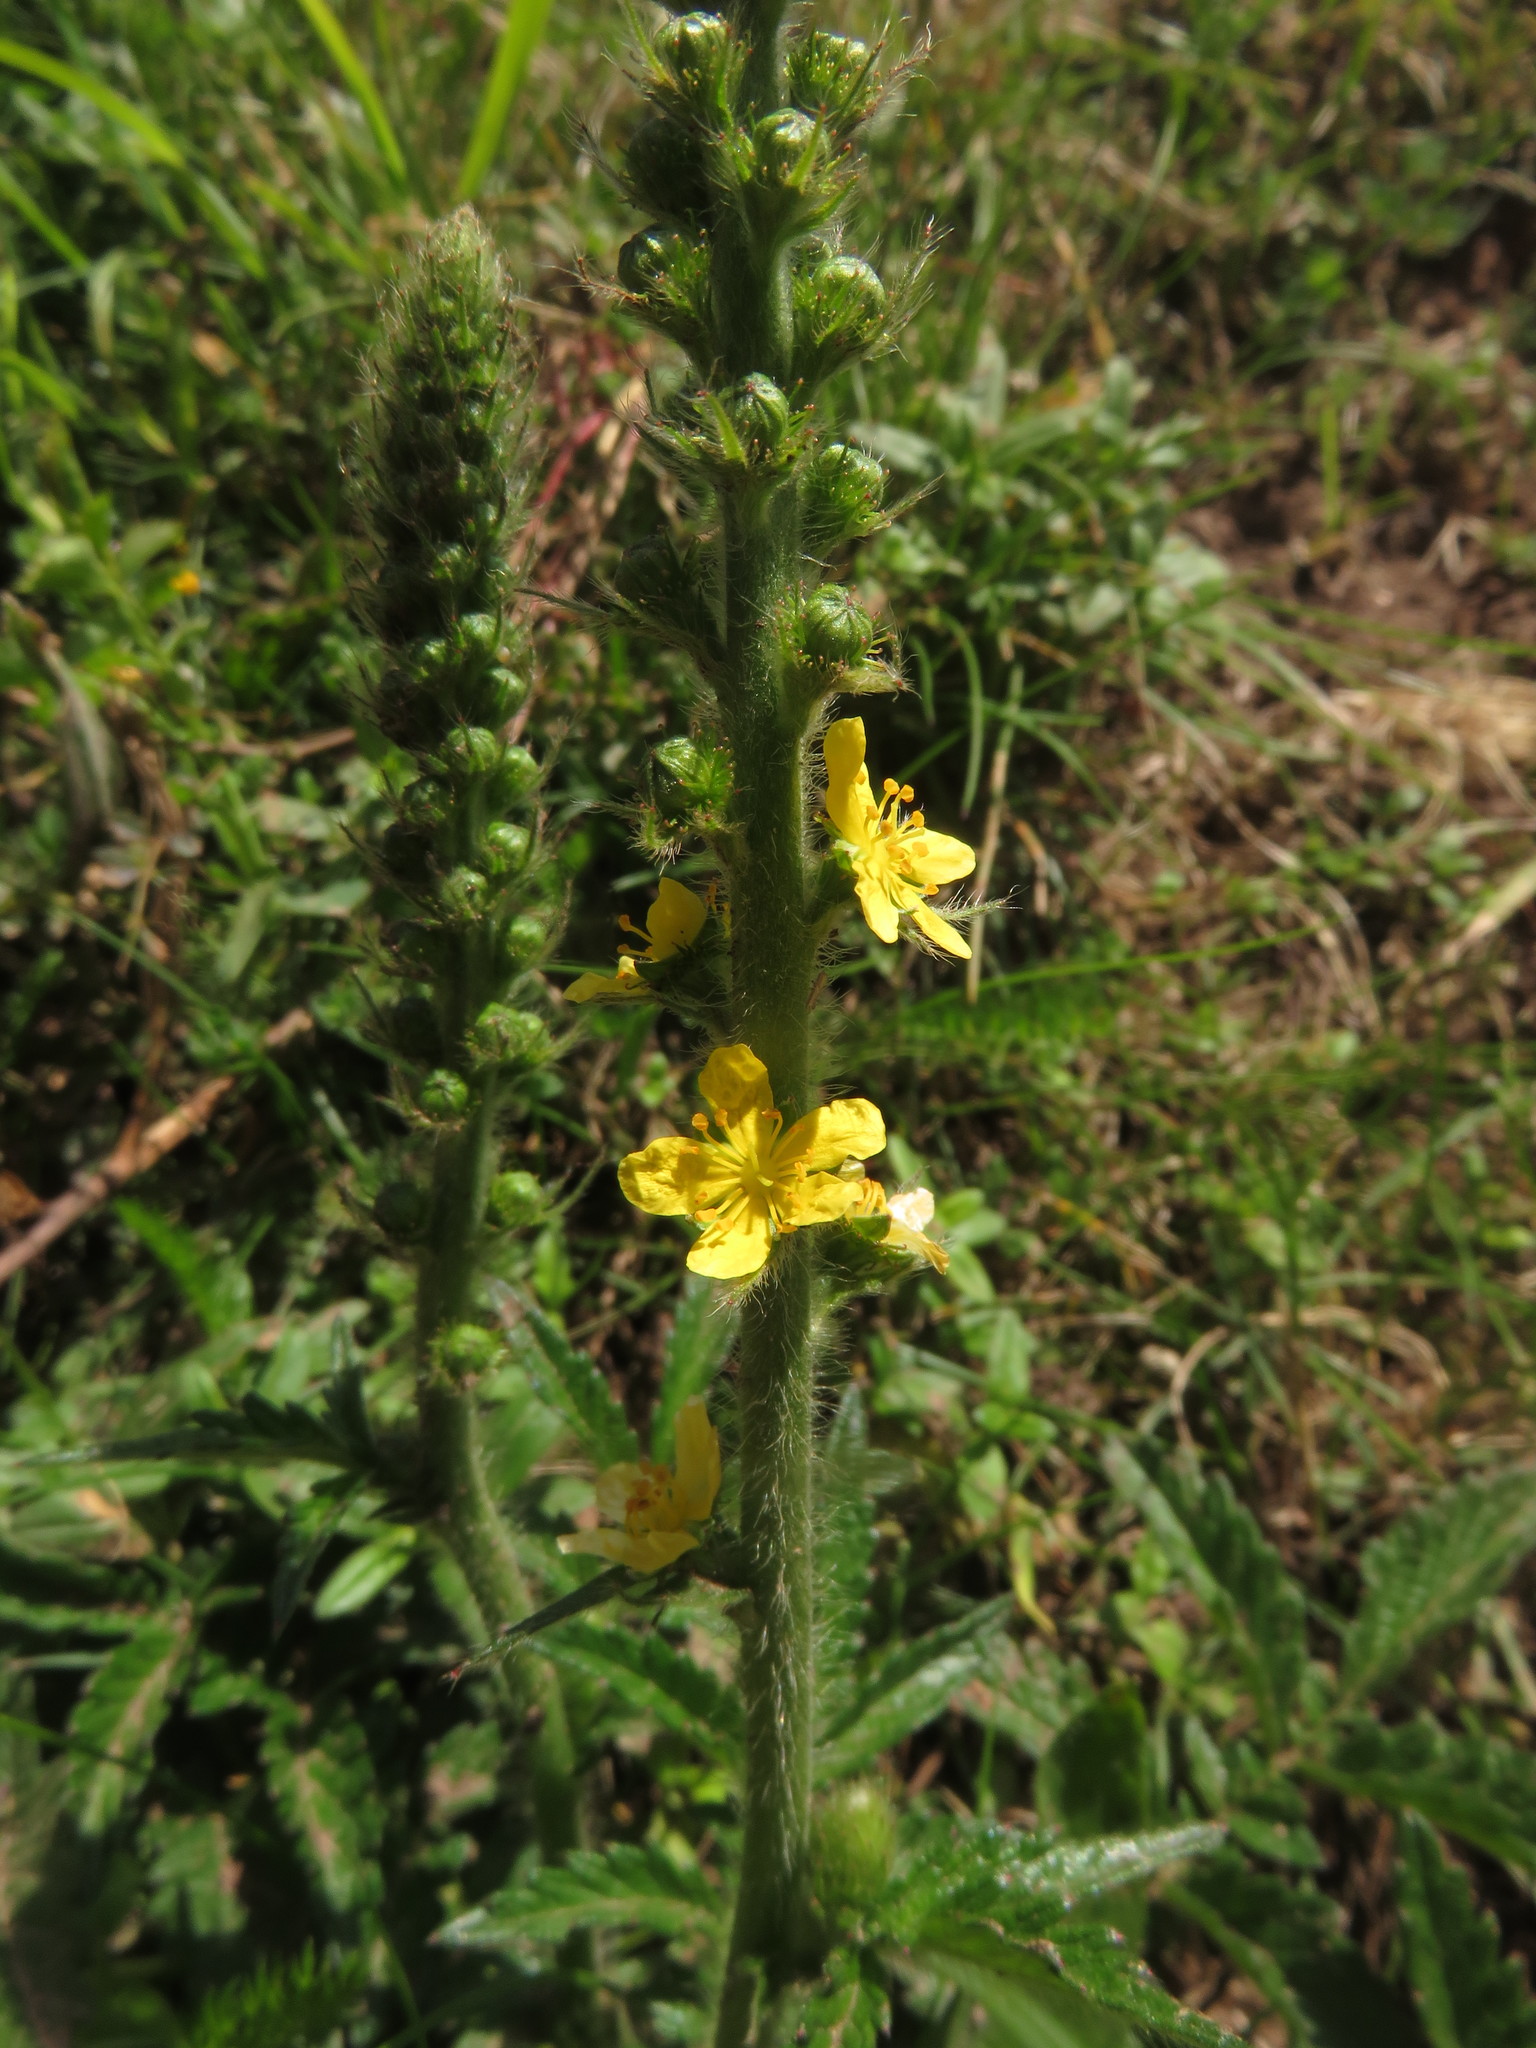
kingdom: Plantae
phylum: Tracheophyta
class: Magnoliopsida
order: Rosales
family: Rosaceae
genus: Agrimonia
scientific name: Agrimonia eupatoria
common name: Agrimony
